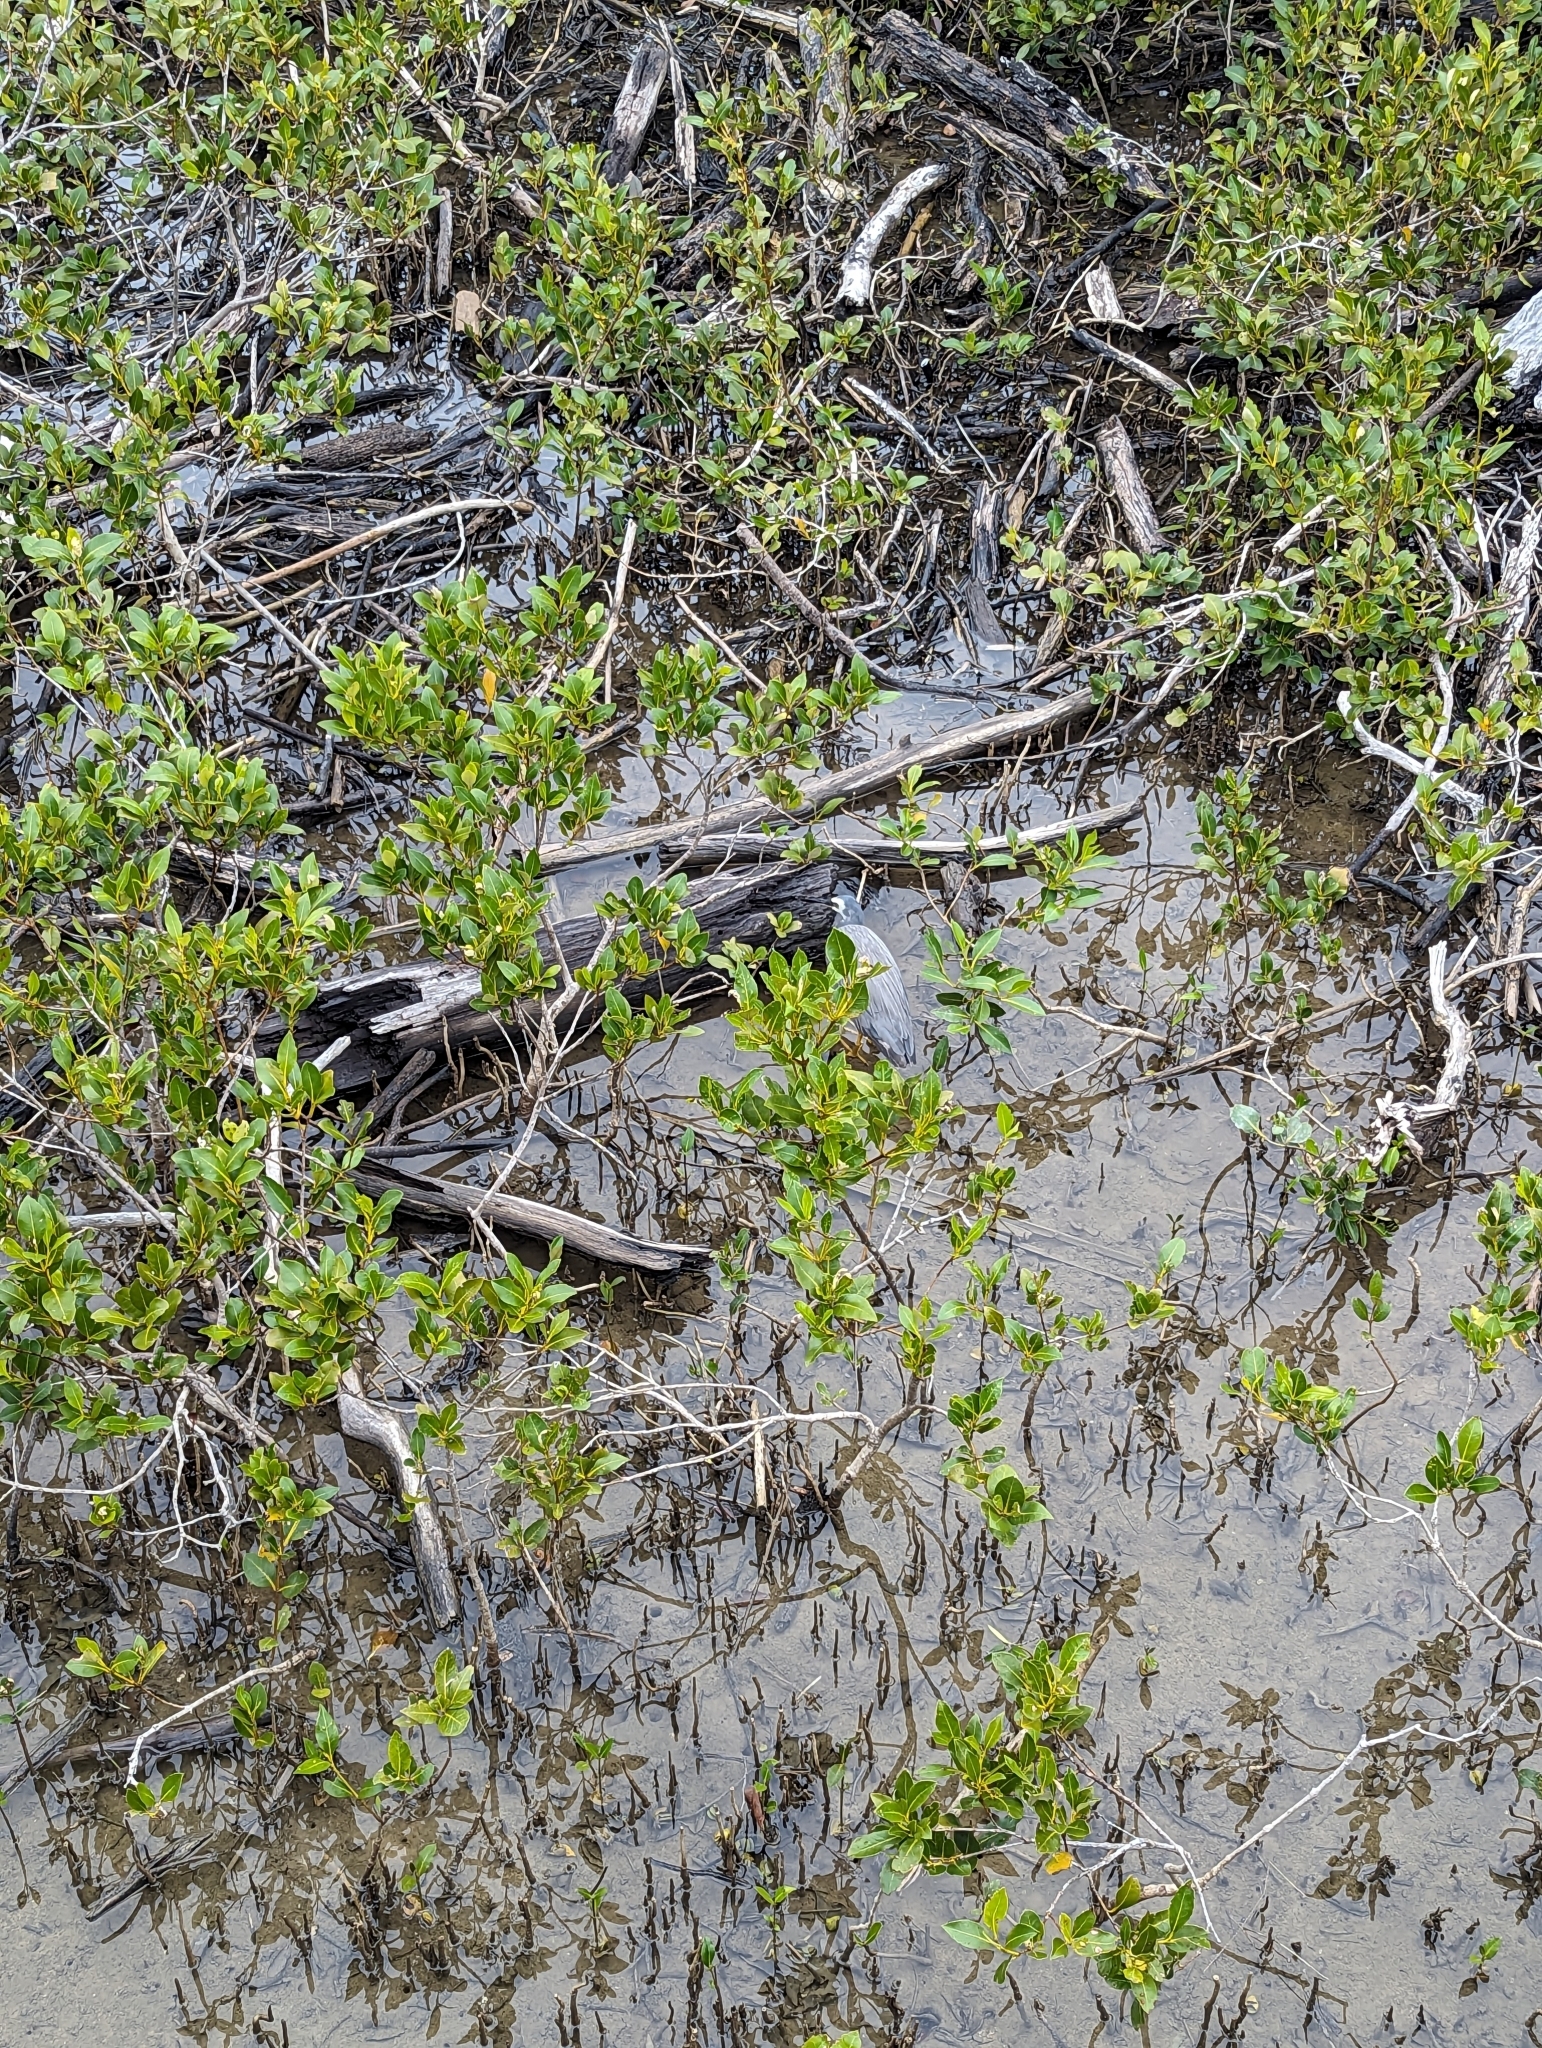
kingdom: Animalia
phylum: Chordata
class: Aves
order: Pelecaniformes
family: Ardeidae
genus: Egretta
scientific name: Egretta novaehollandiae
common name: White-faced heron
